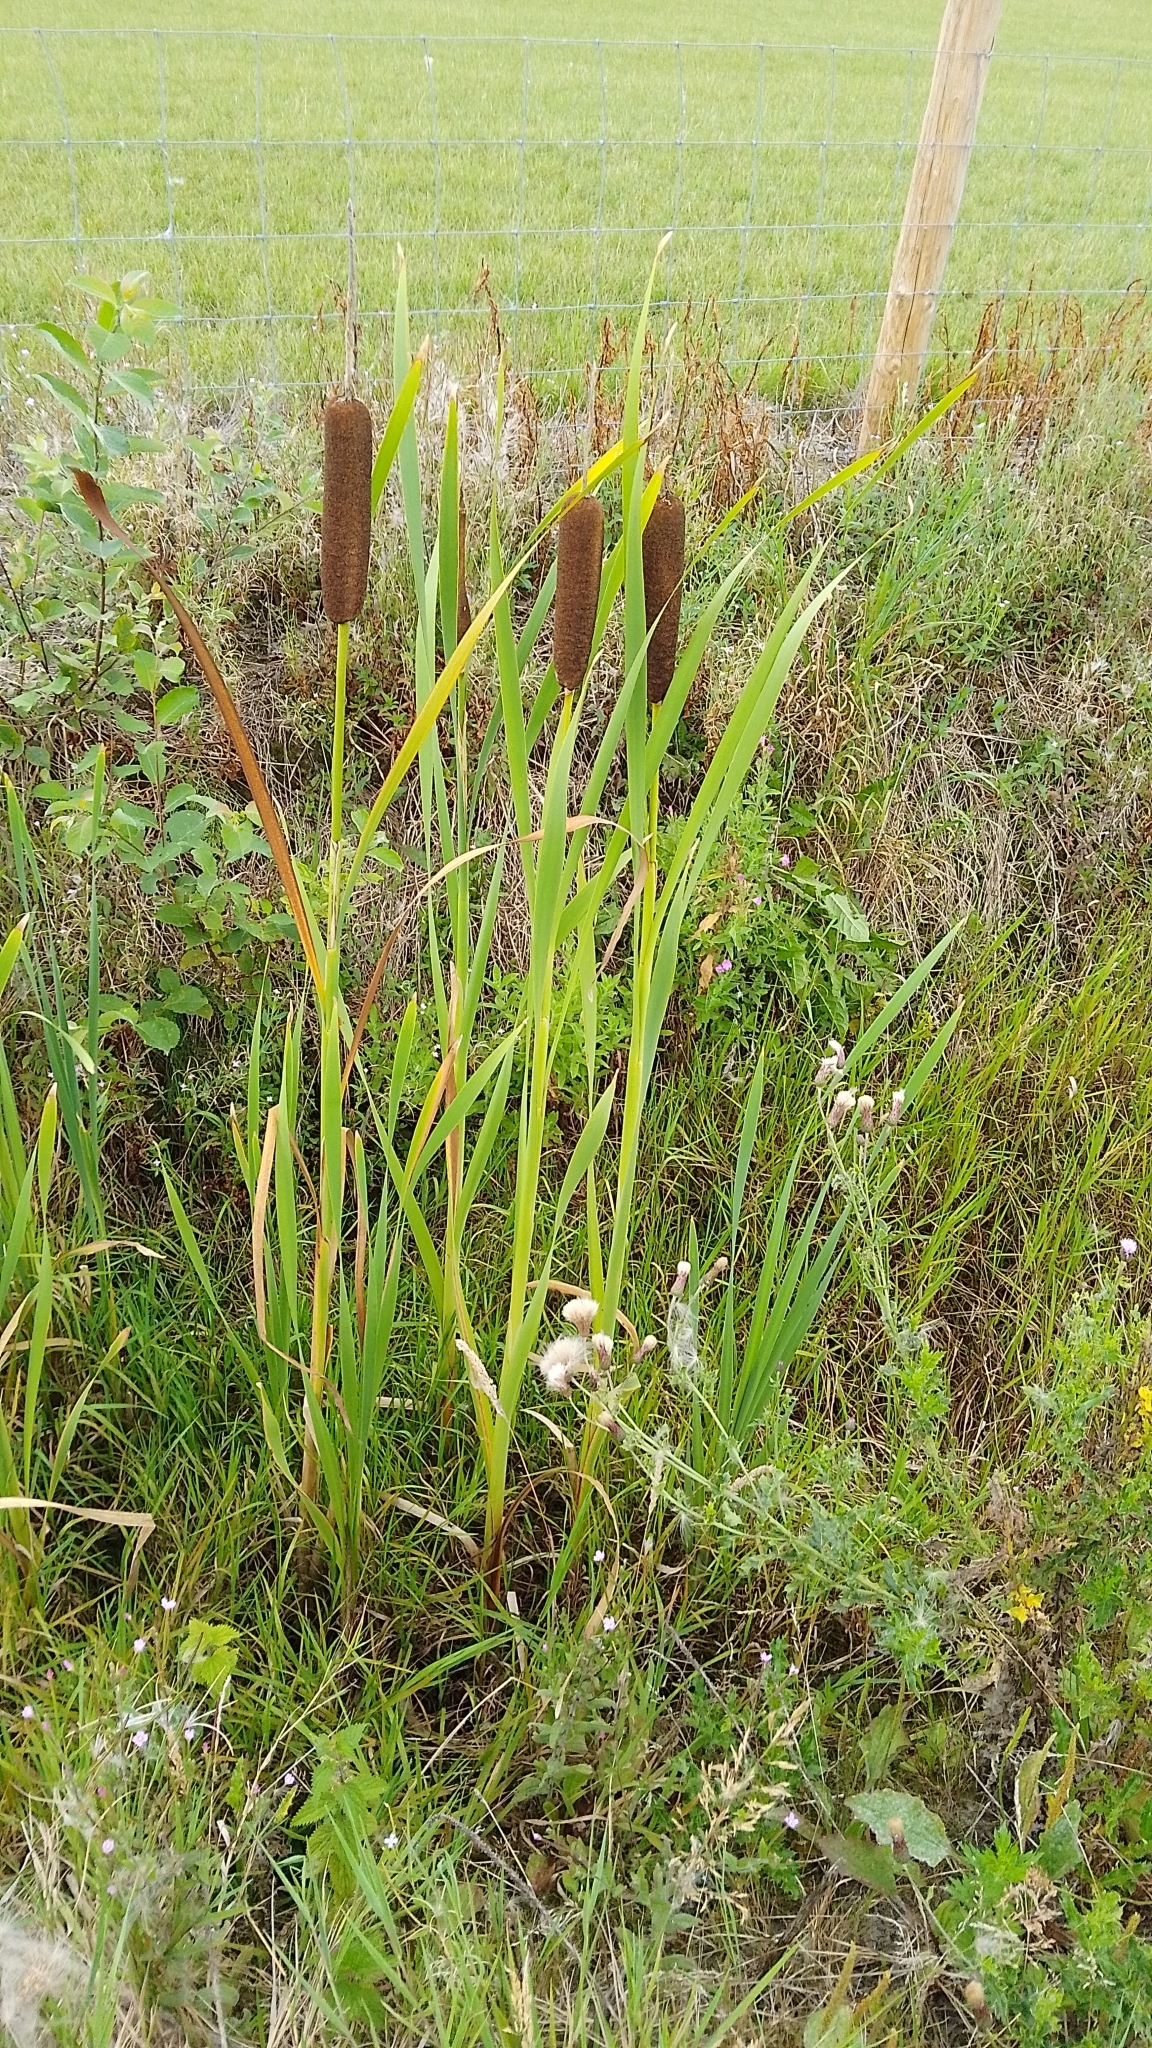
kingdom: Plantae
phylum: Tracheophyta
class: Liliopsida
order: Poales
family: Typhaceae
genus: Typha
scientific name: Typha latifolia
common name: Broadleaf cattail
